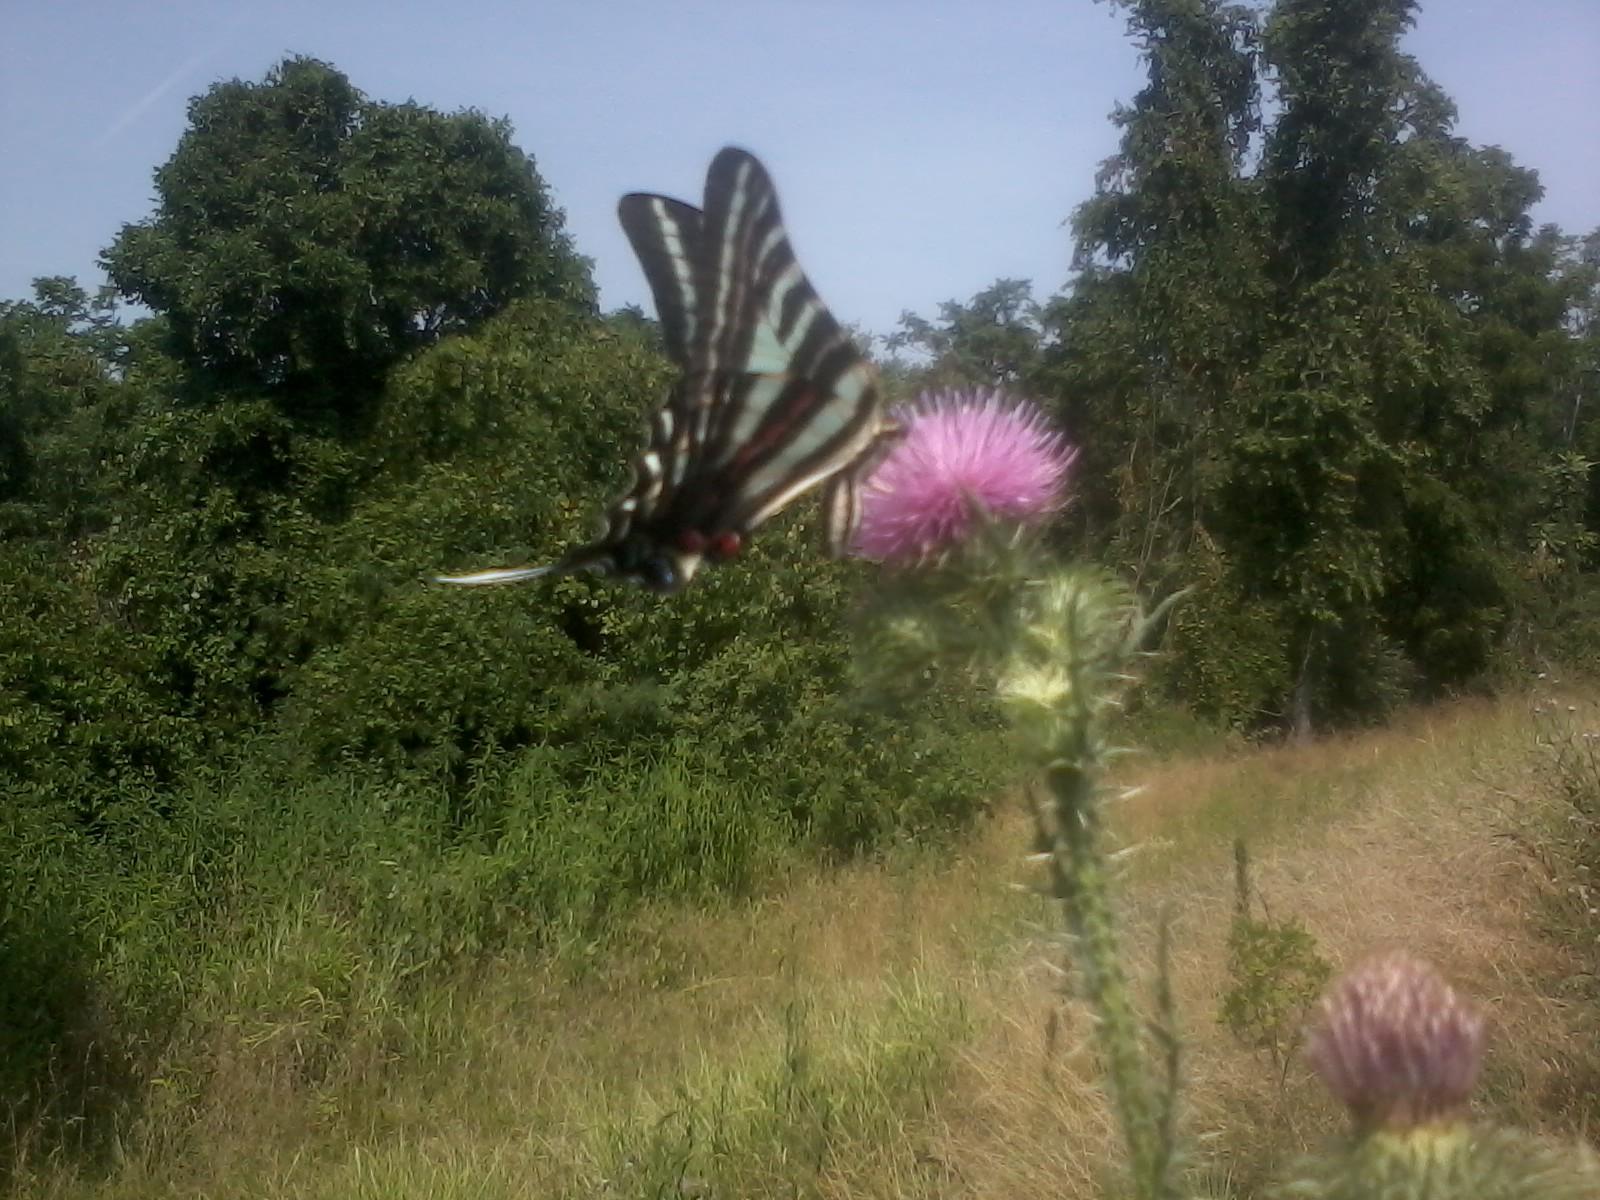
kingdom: Animalia
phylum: Arthropoda
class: Insecta
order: Lepidoptera
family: Papilionidae
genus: Protographium
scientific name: Protographium marcellus
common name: Zebra swallowtail
